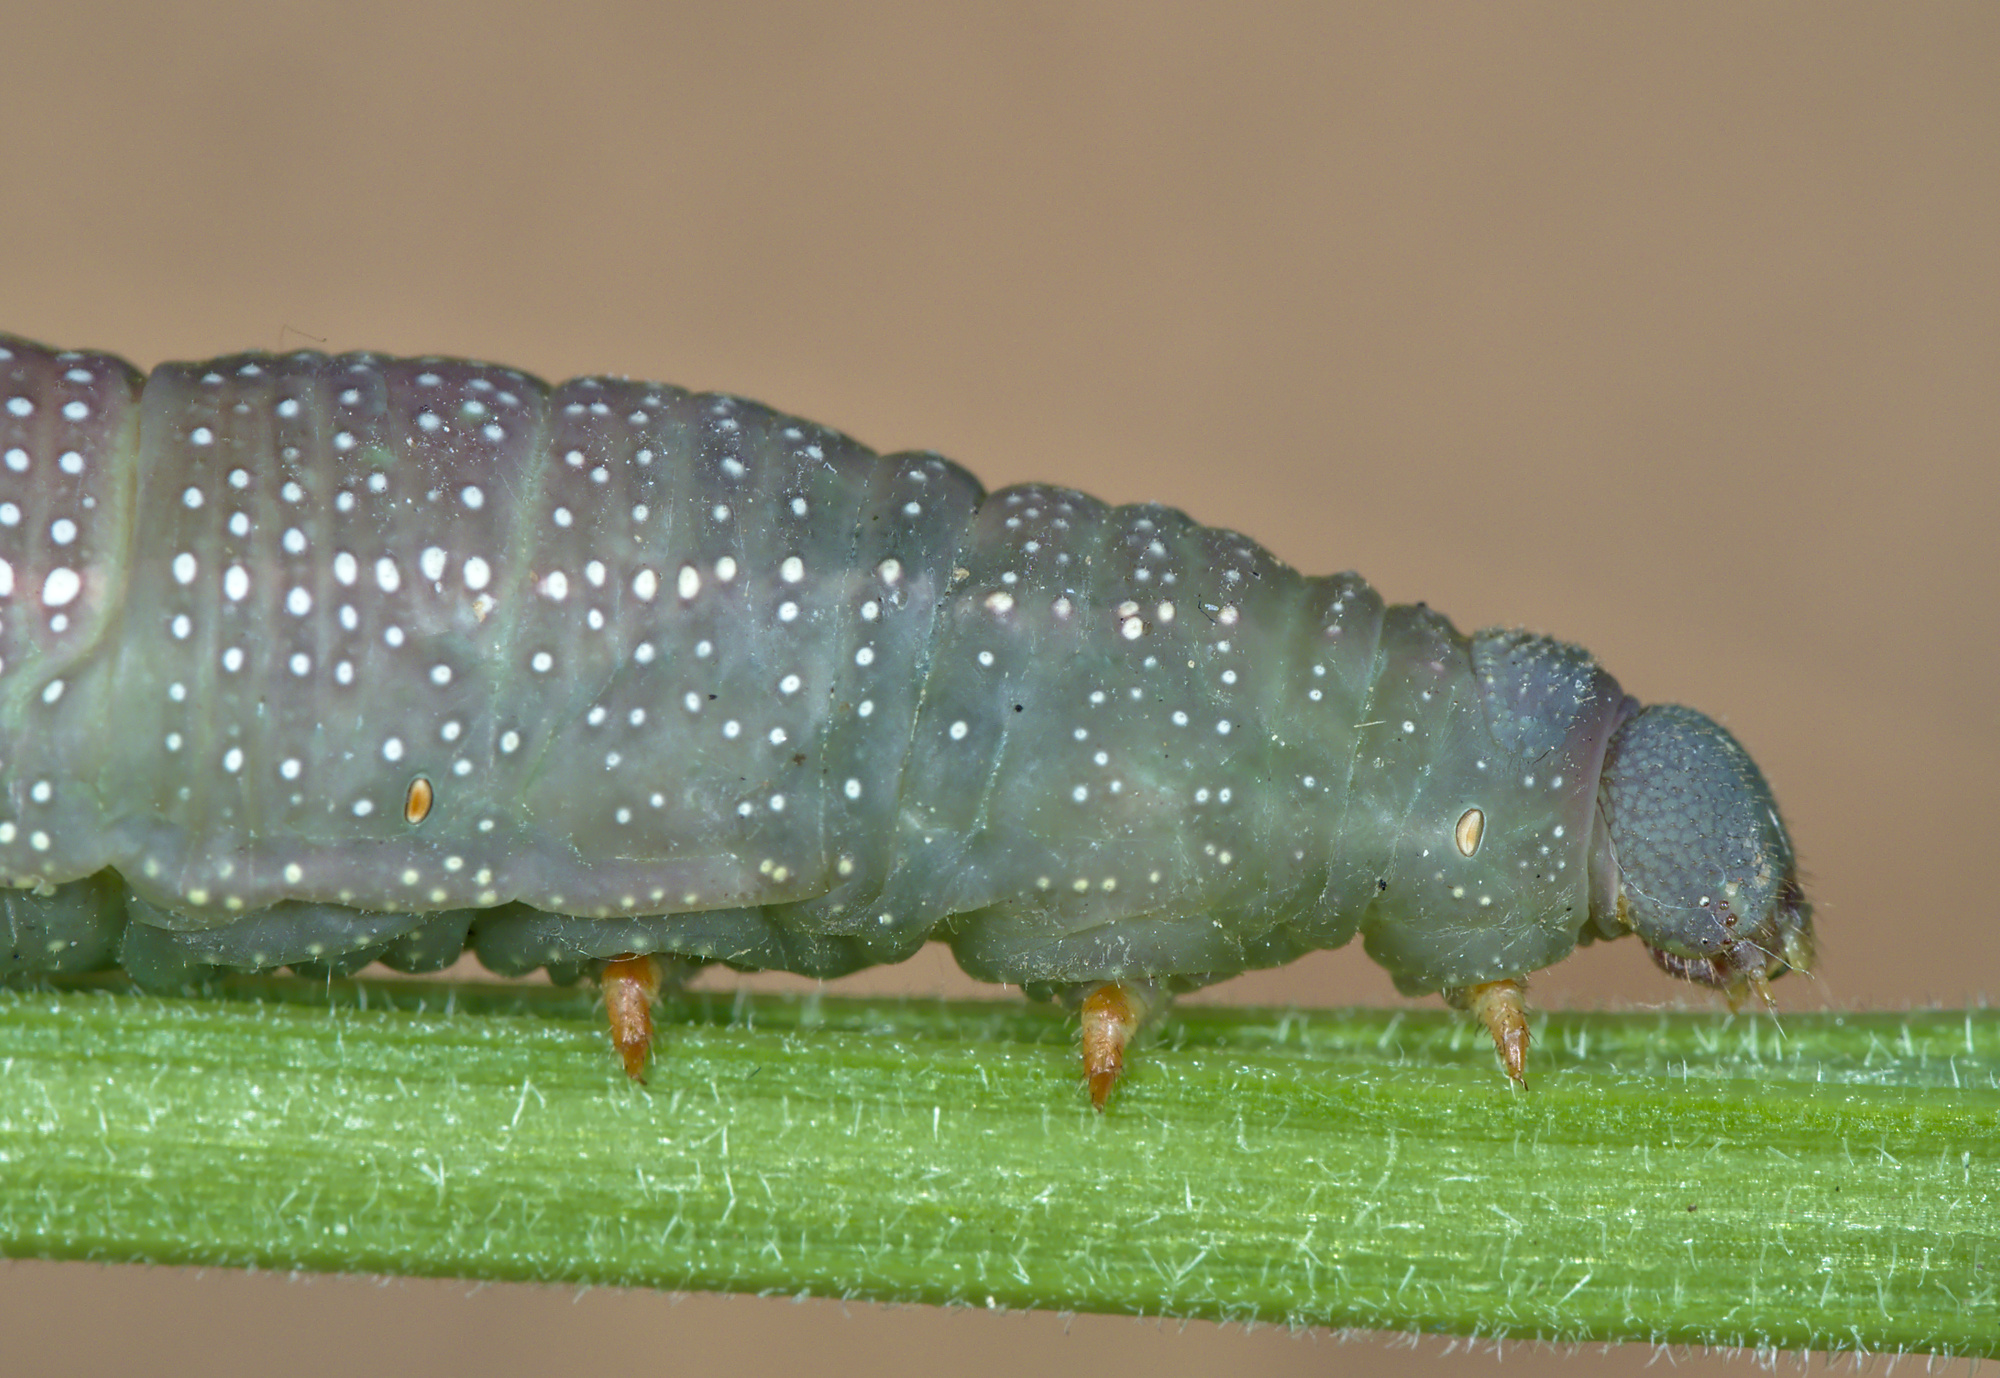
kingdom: Animalia
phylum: Arthropoda
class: Insecta
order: Lepidoptera
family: Sphingidae
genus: Macroglossum
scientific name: Macroglossum stellatarum
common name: Humming-bird hawk-moth
